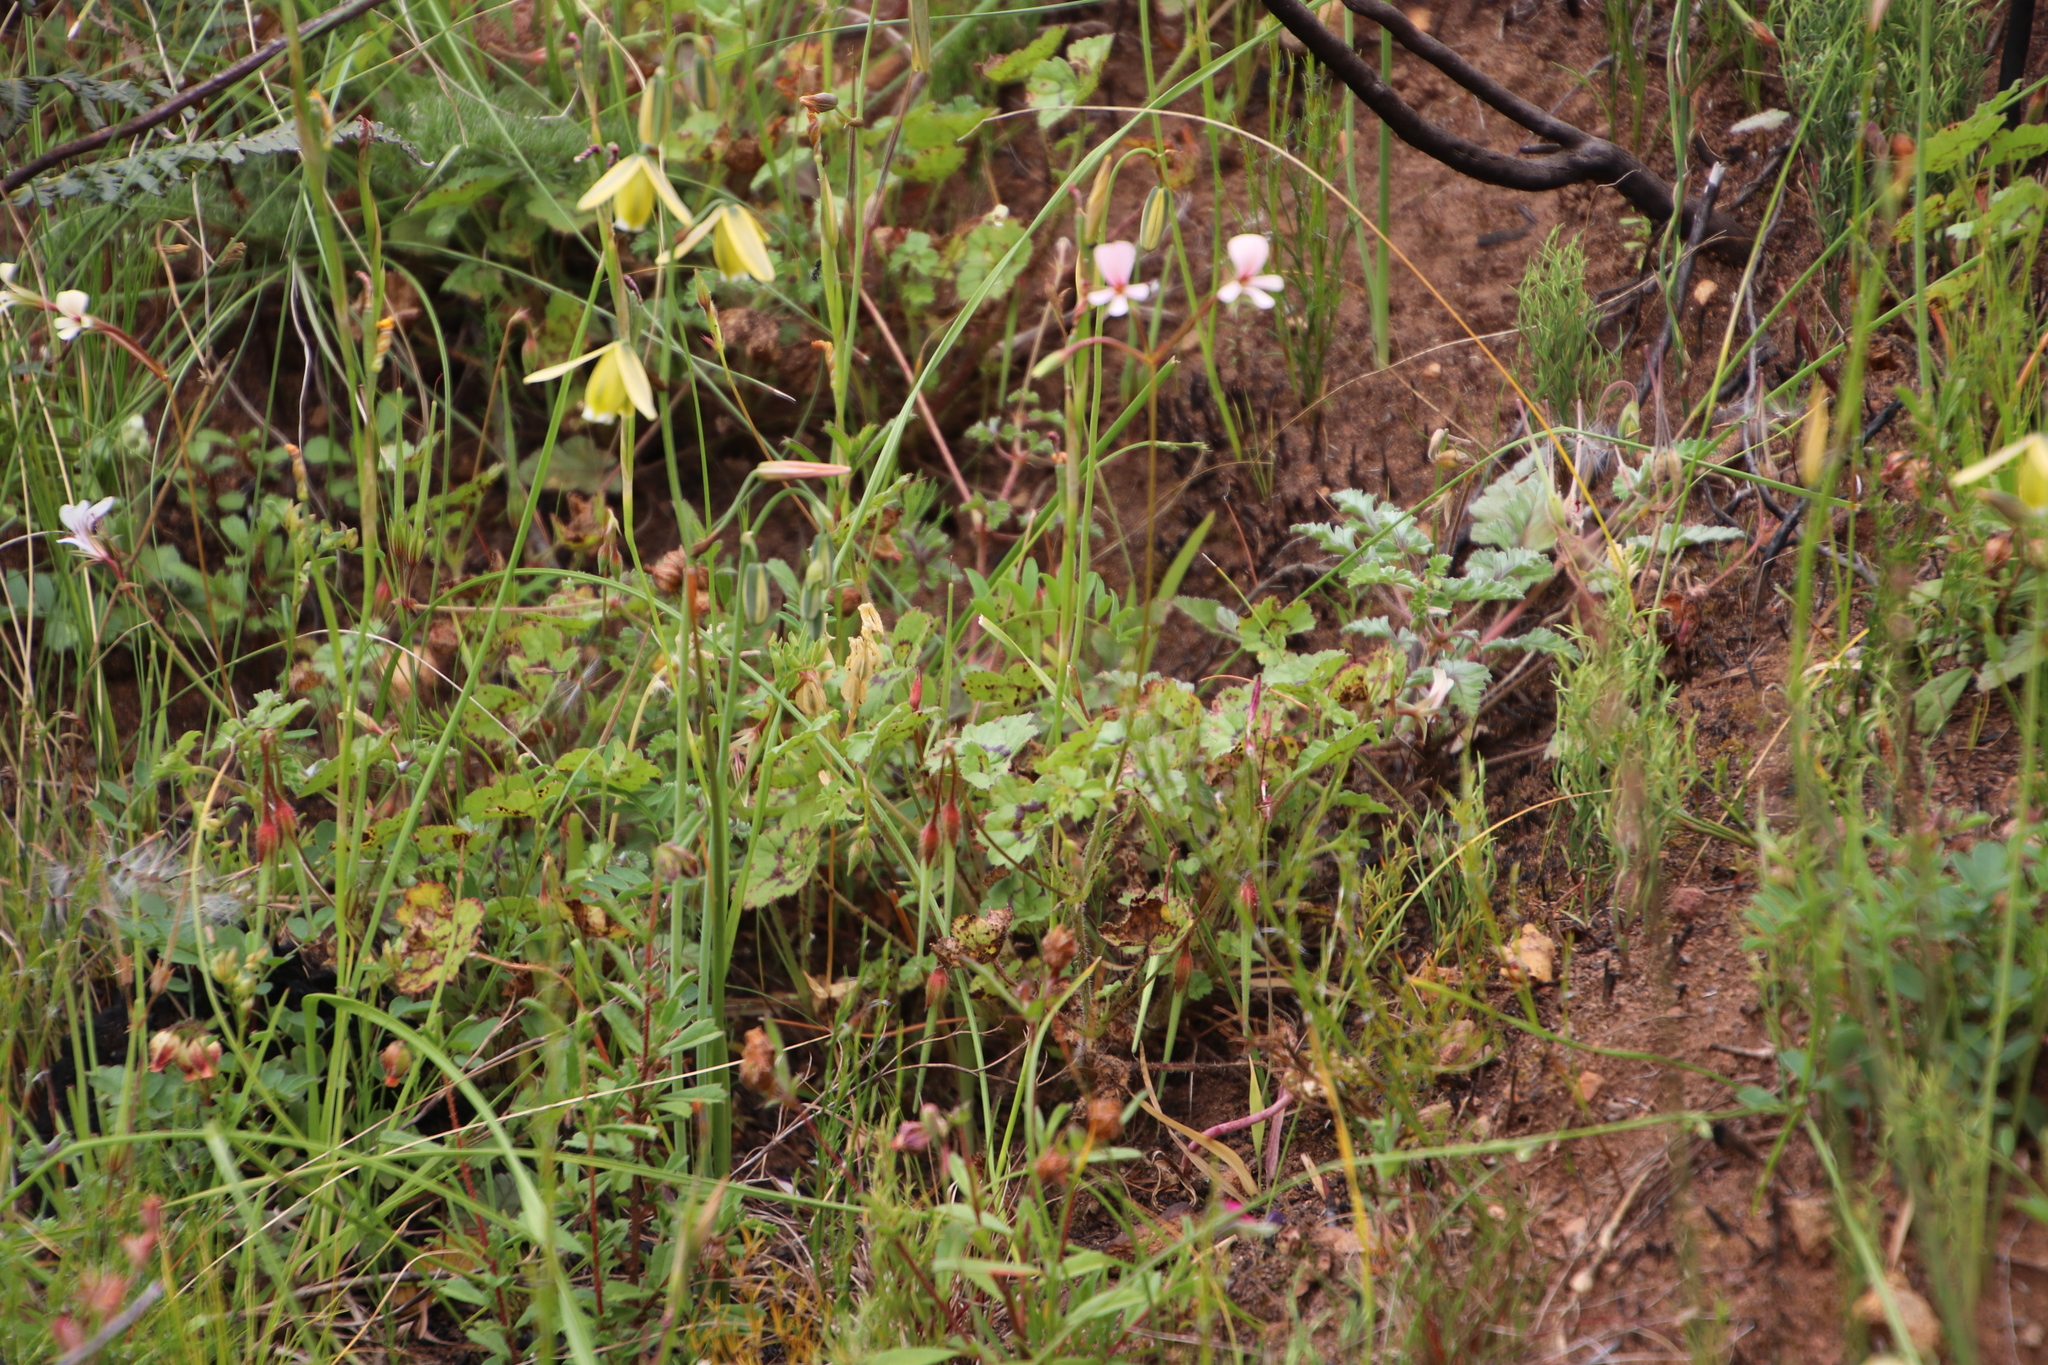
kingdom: Plantae
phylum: Tracheophyta
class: Magnoliopsida
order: Geraniales
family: Geraniaceae
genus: Pelargonium
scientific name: Pelargonium elongatum
